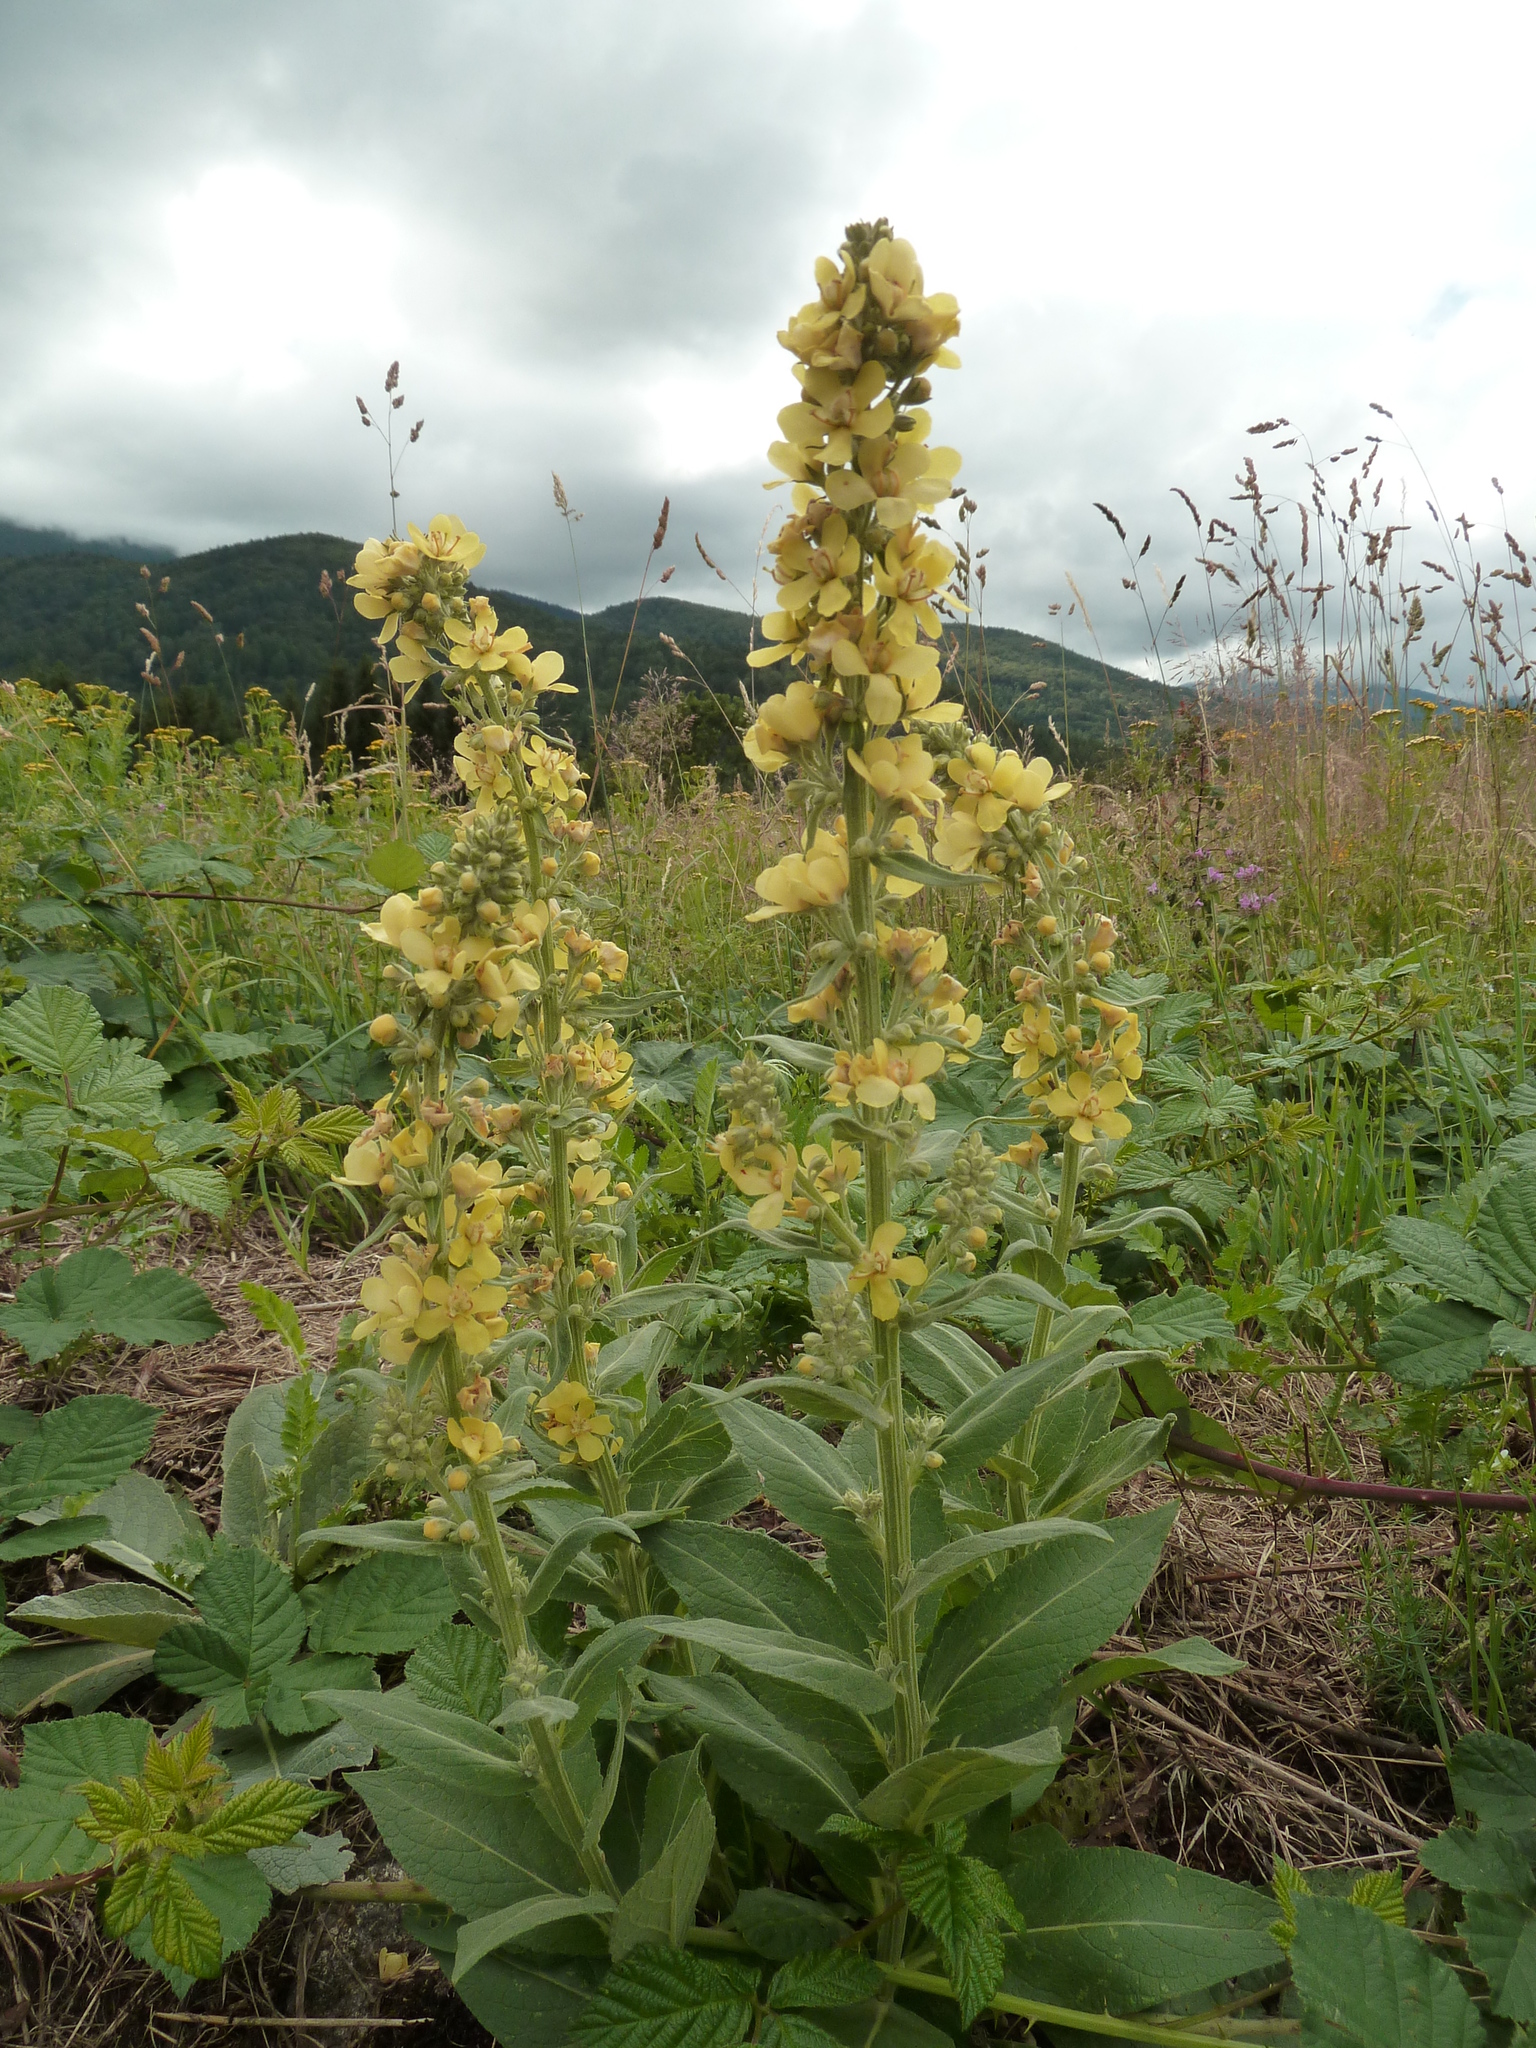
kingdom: Plantae
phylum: Tracheophyta
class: Magnoliopsida
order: Lamiales
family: Scrophulariaceae
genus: Verbascum
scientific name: Verbascum lychnitis
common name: White mullein
